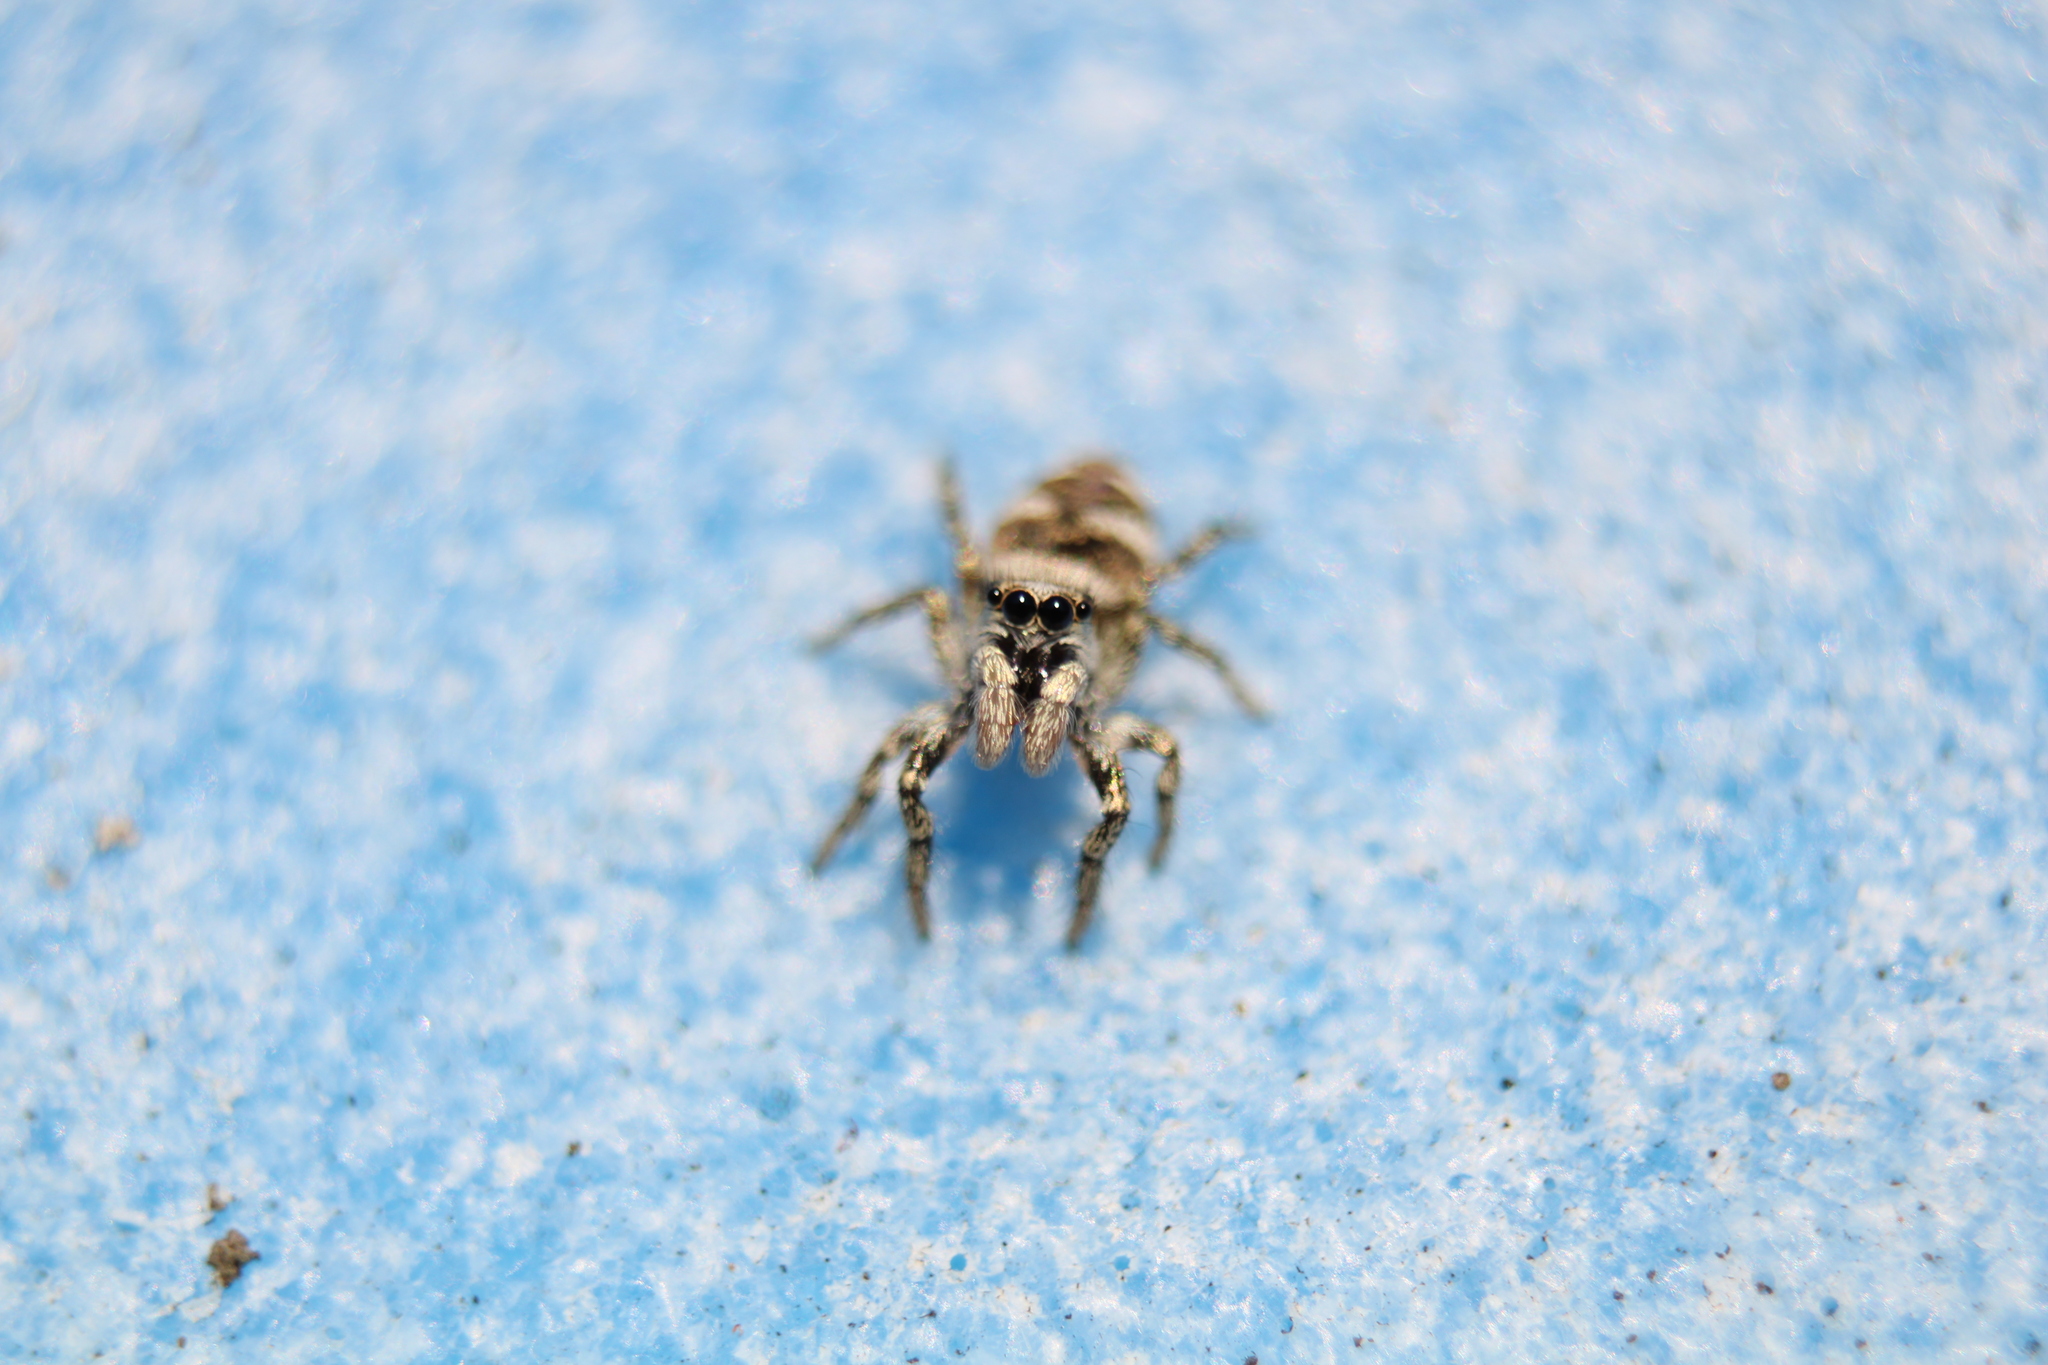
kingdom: Animalia
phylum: Arthropoda
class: Arachnida
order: Araneae
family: Salticidae
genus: Salticus
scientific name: Salticus scenicus
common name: Zebra jumper
